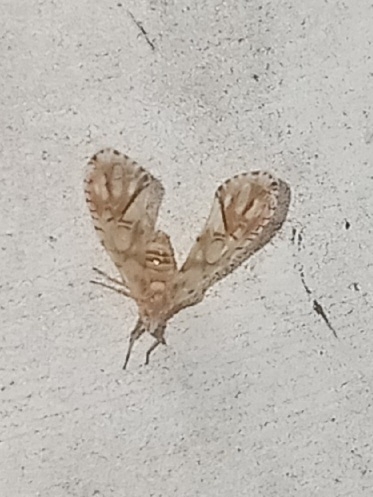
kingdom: Animalia
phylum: Arthropoda
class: Insecta
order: Hemiptera
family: Derbidae
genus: Anotia
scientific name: Anotia kirkaldyi
